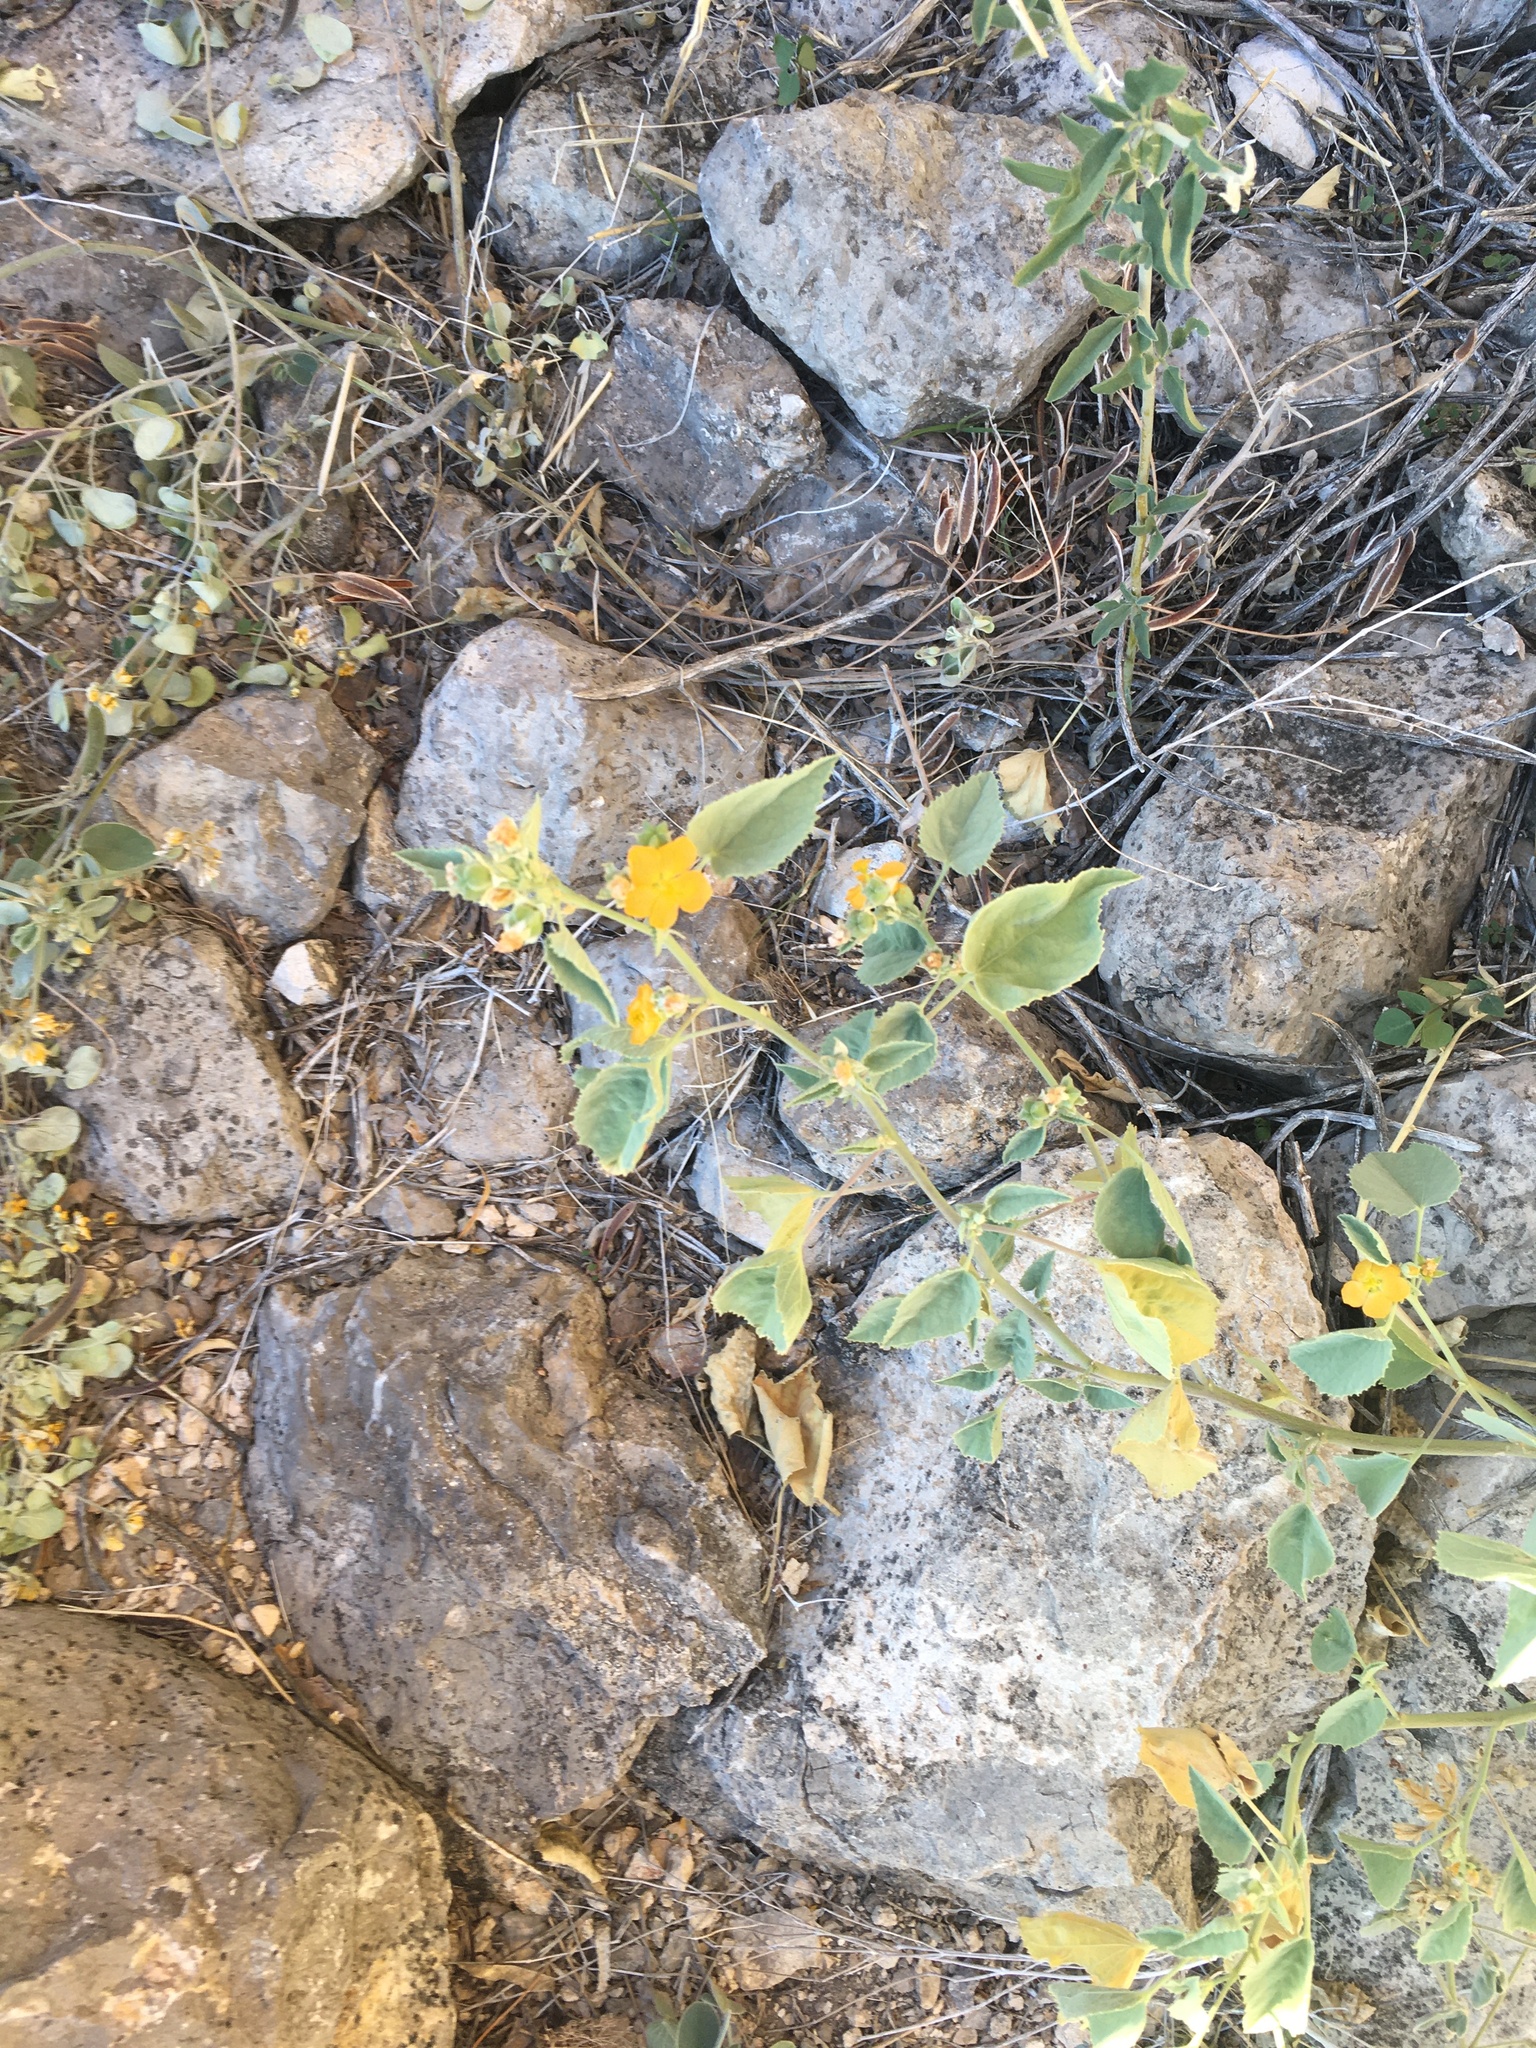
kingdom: Plantae
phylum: Tracheophyta
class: Magnoliopsida
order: Malvales
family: Malvaceae
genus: Abutilon
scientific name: Abutilon malacum
